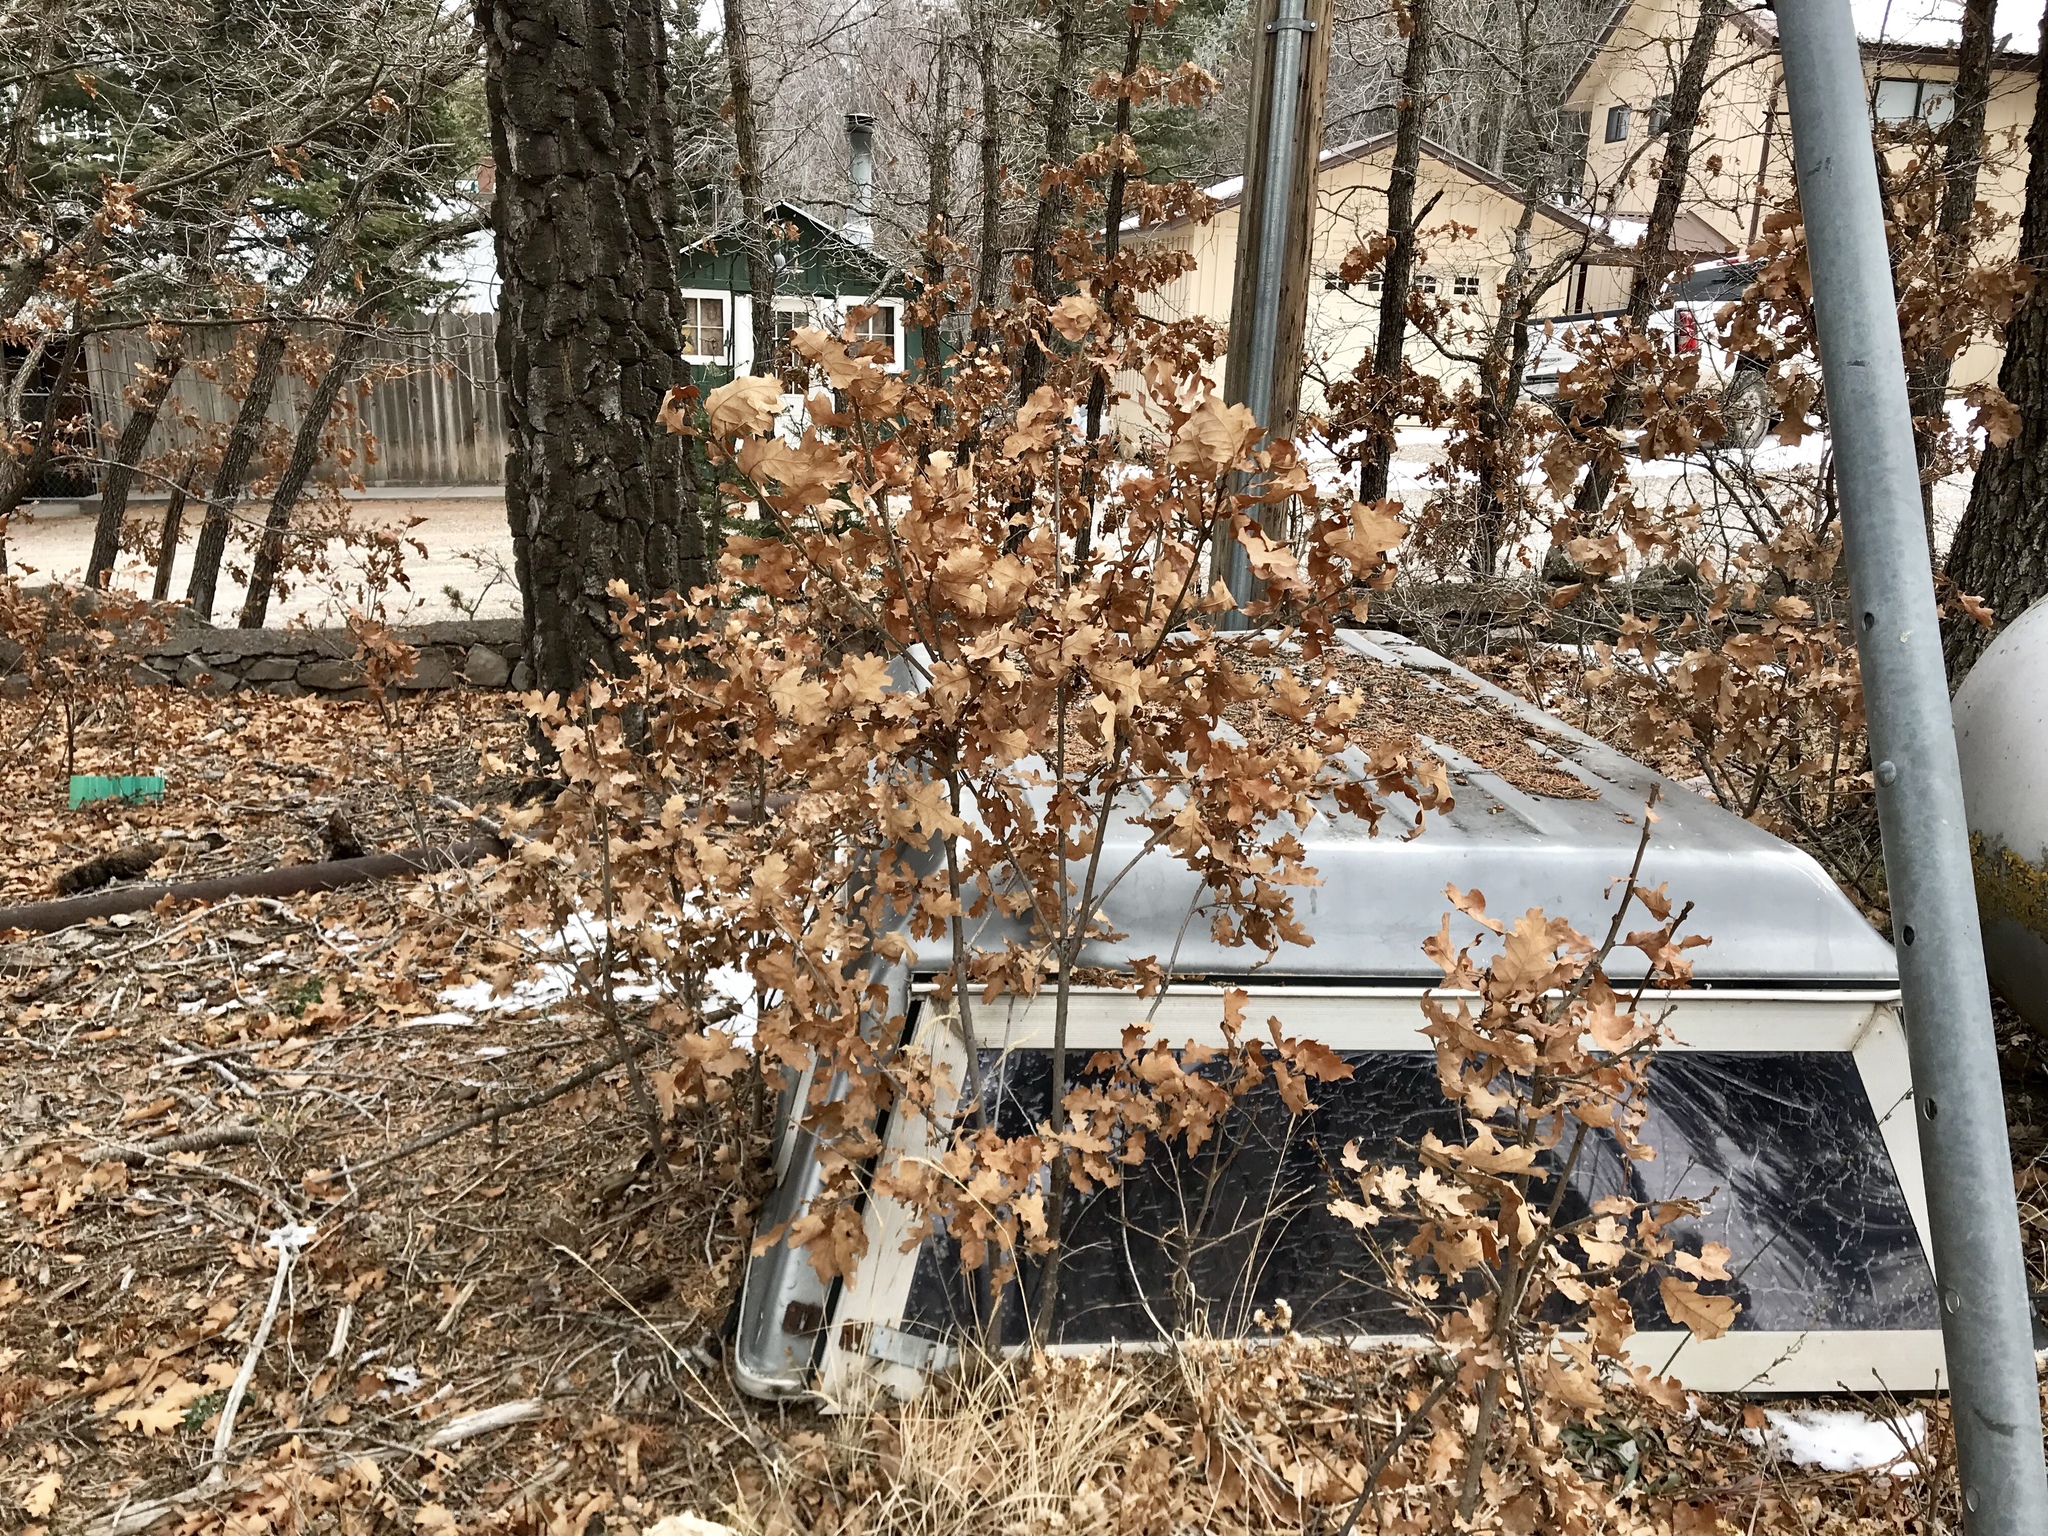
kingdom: Plantae
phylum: Tracheophyta
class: Magnoliopsida
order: Fagales
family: Fagaceae
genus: Quercus
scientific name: Quercus gambelii
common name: Gambel oak
